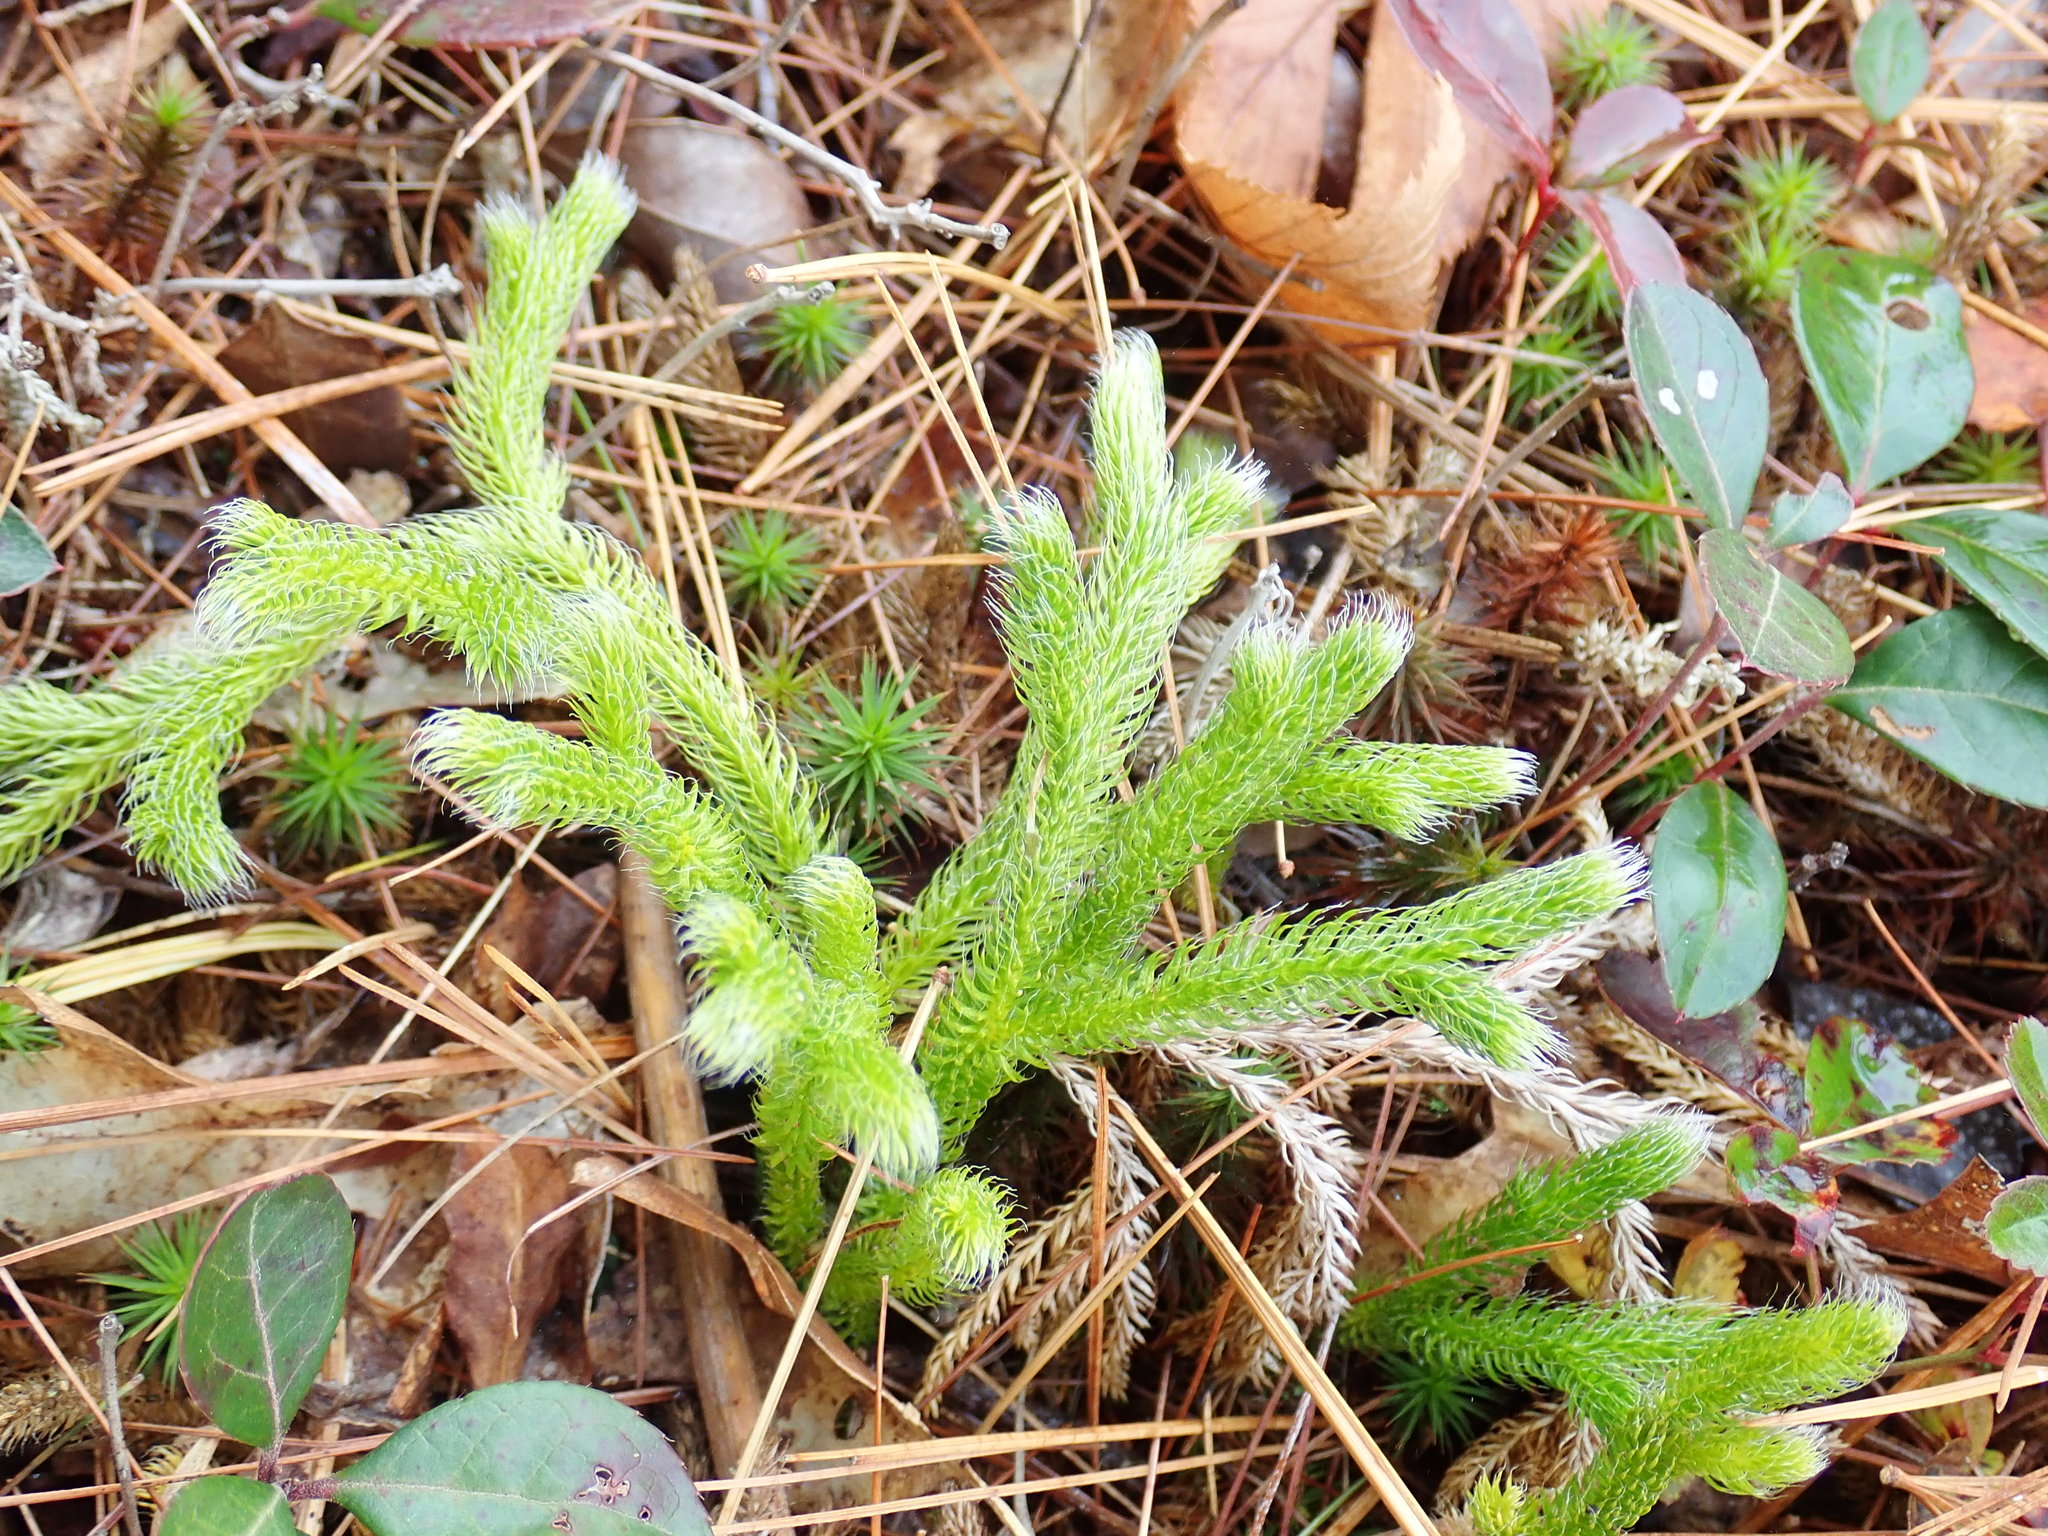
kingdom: Plantae
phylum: Tracheophyta
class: Lycopodiopsida
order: Lycopodiales
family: Lycopodiaceae
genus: Lycopodium
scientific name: Lycopodium clavatum
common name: Stag's-horn clubmoss
